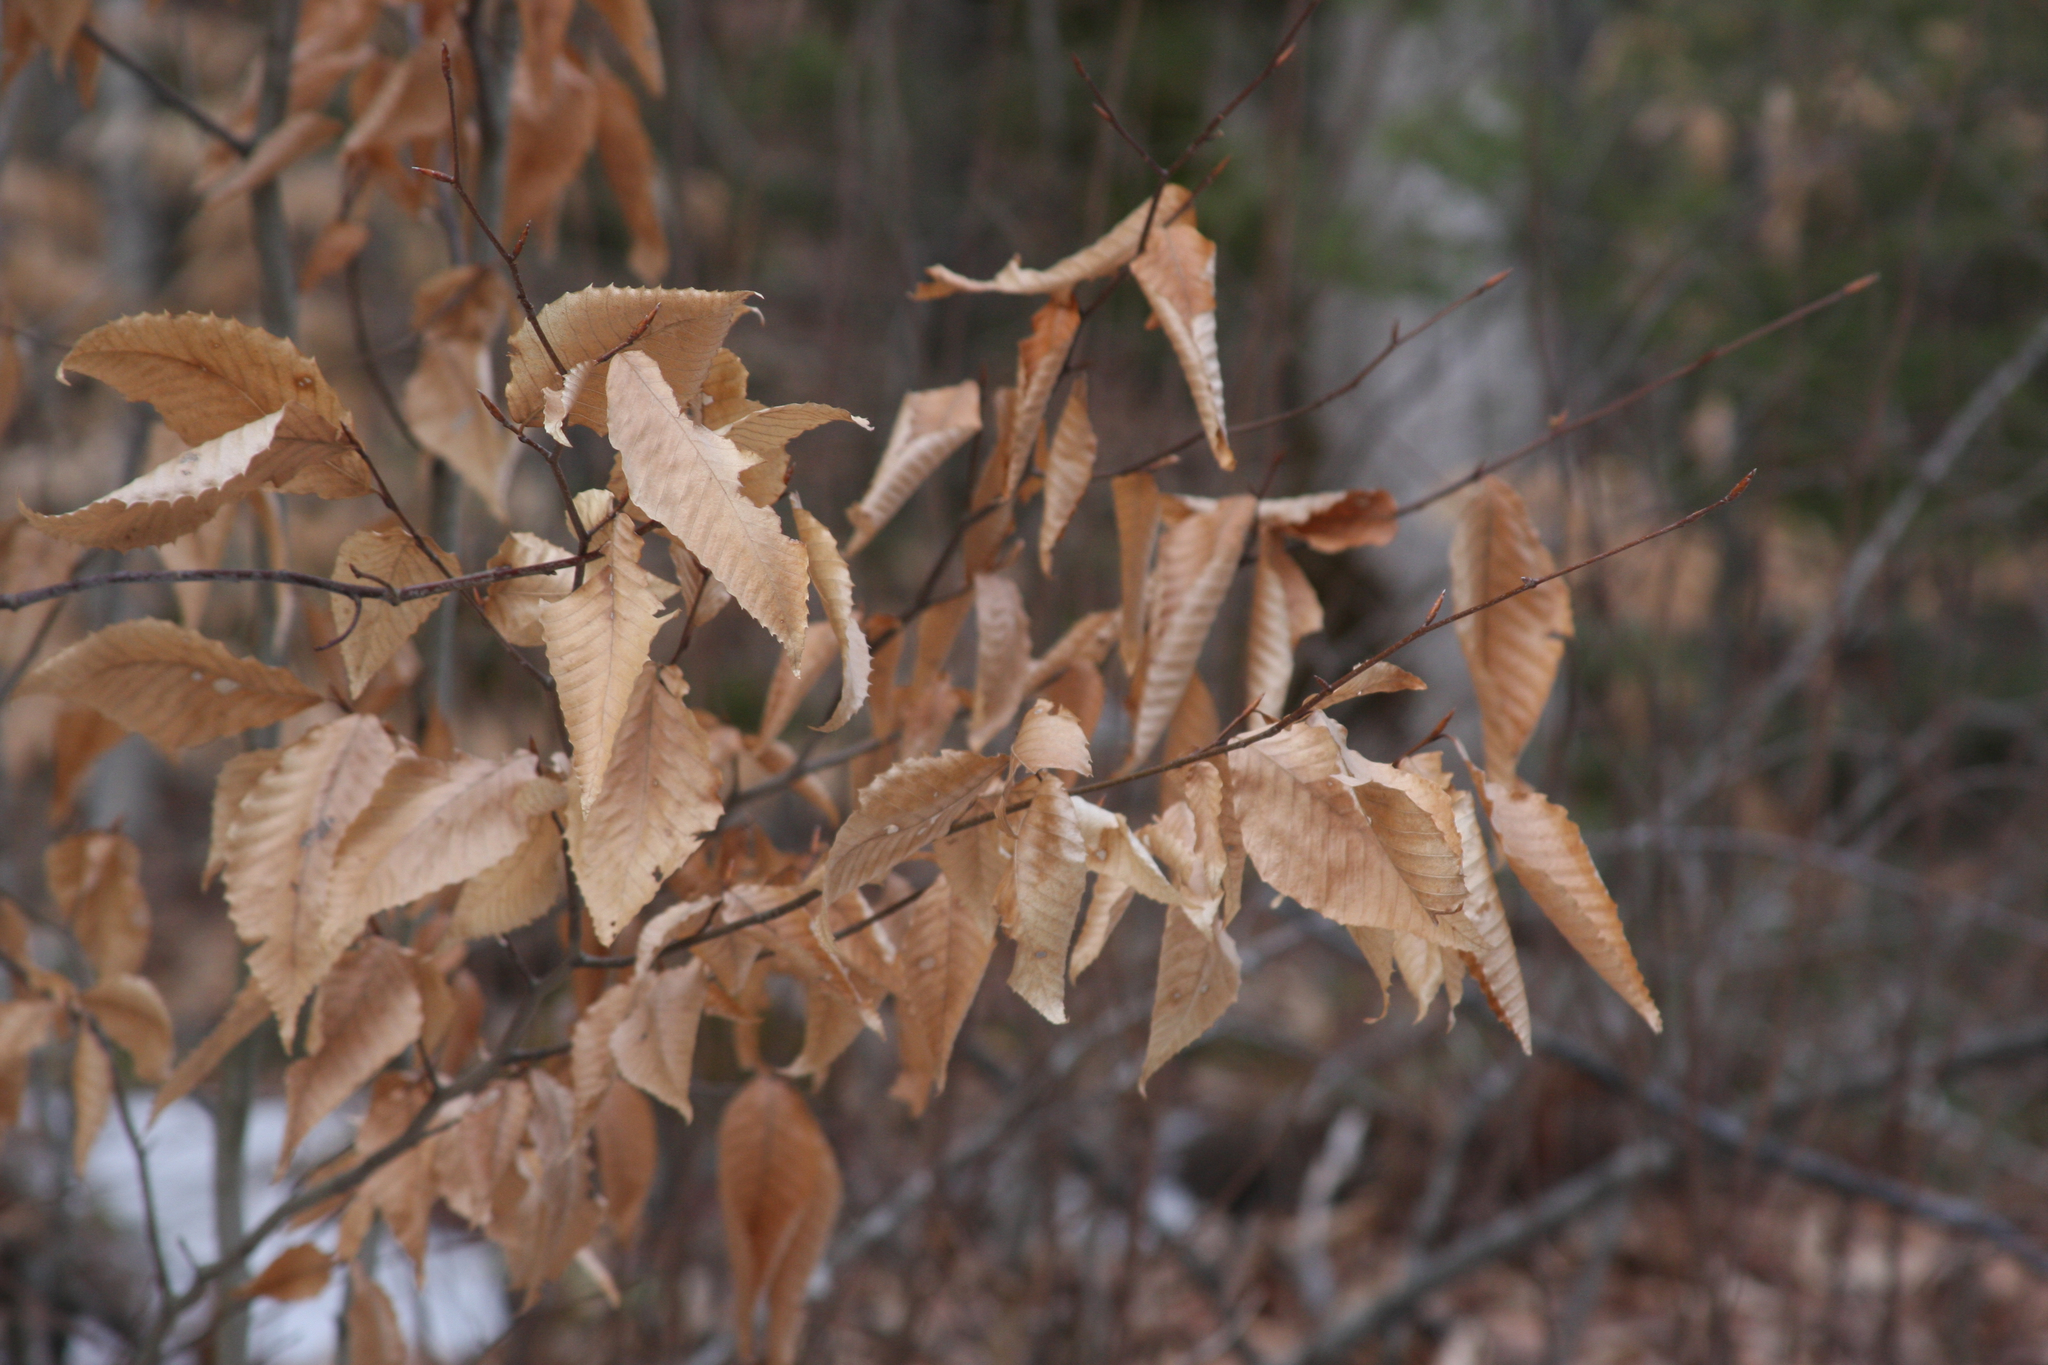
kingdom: Plantae
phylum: Tracheophyta
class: Magnoliopsida
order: Fagales
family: Fagaceae
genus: Fagus
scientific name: Fagus grandifolia
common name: American beech
